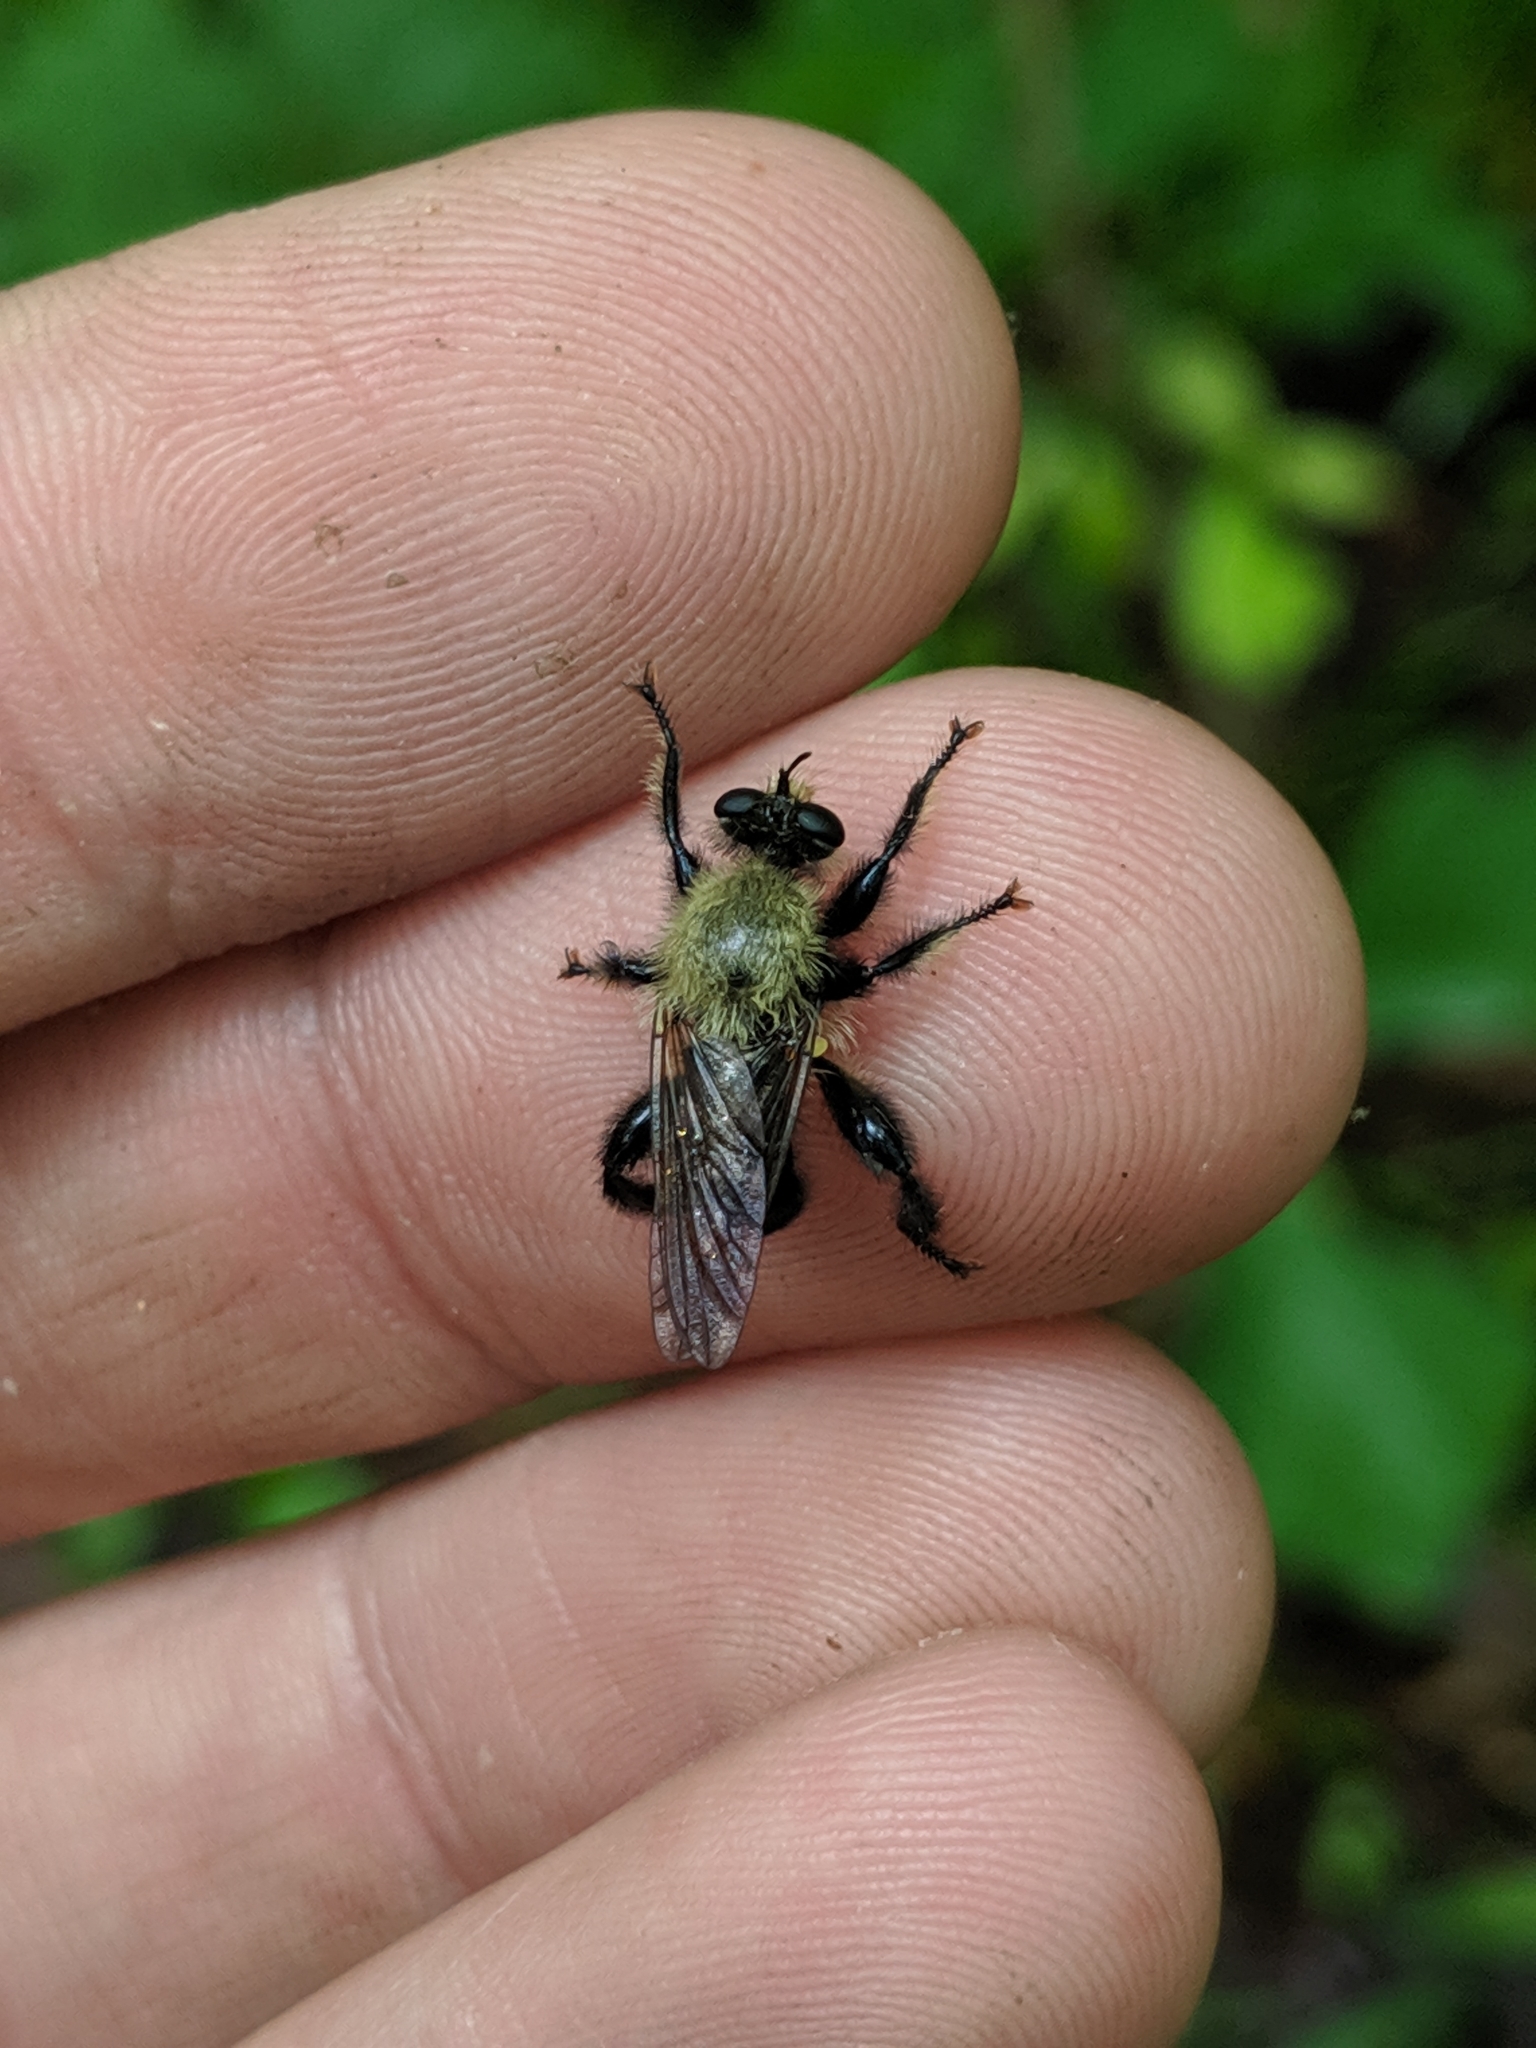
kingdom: Animalia
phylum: Arthropoda
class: Insecta
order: Diptera
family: Asilidae
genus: Laphria
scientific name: Laphria flavicollis
